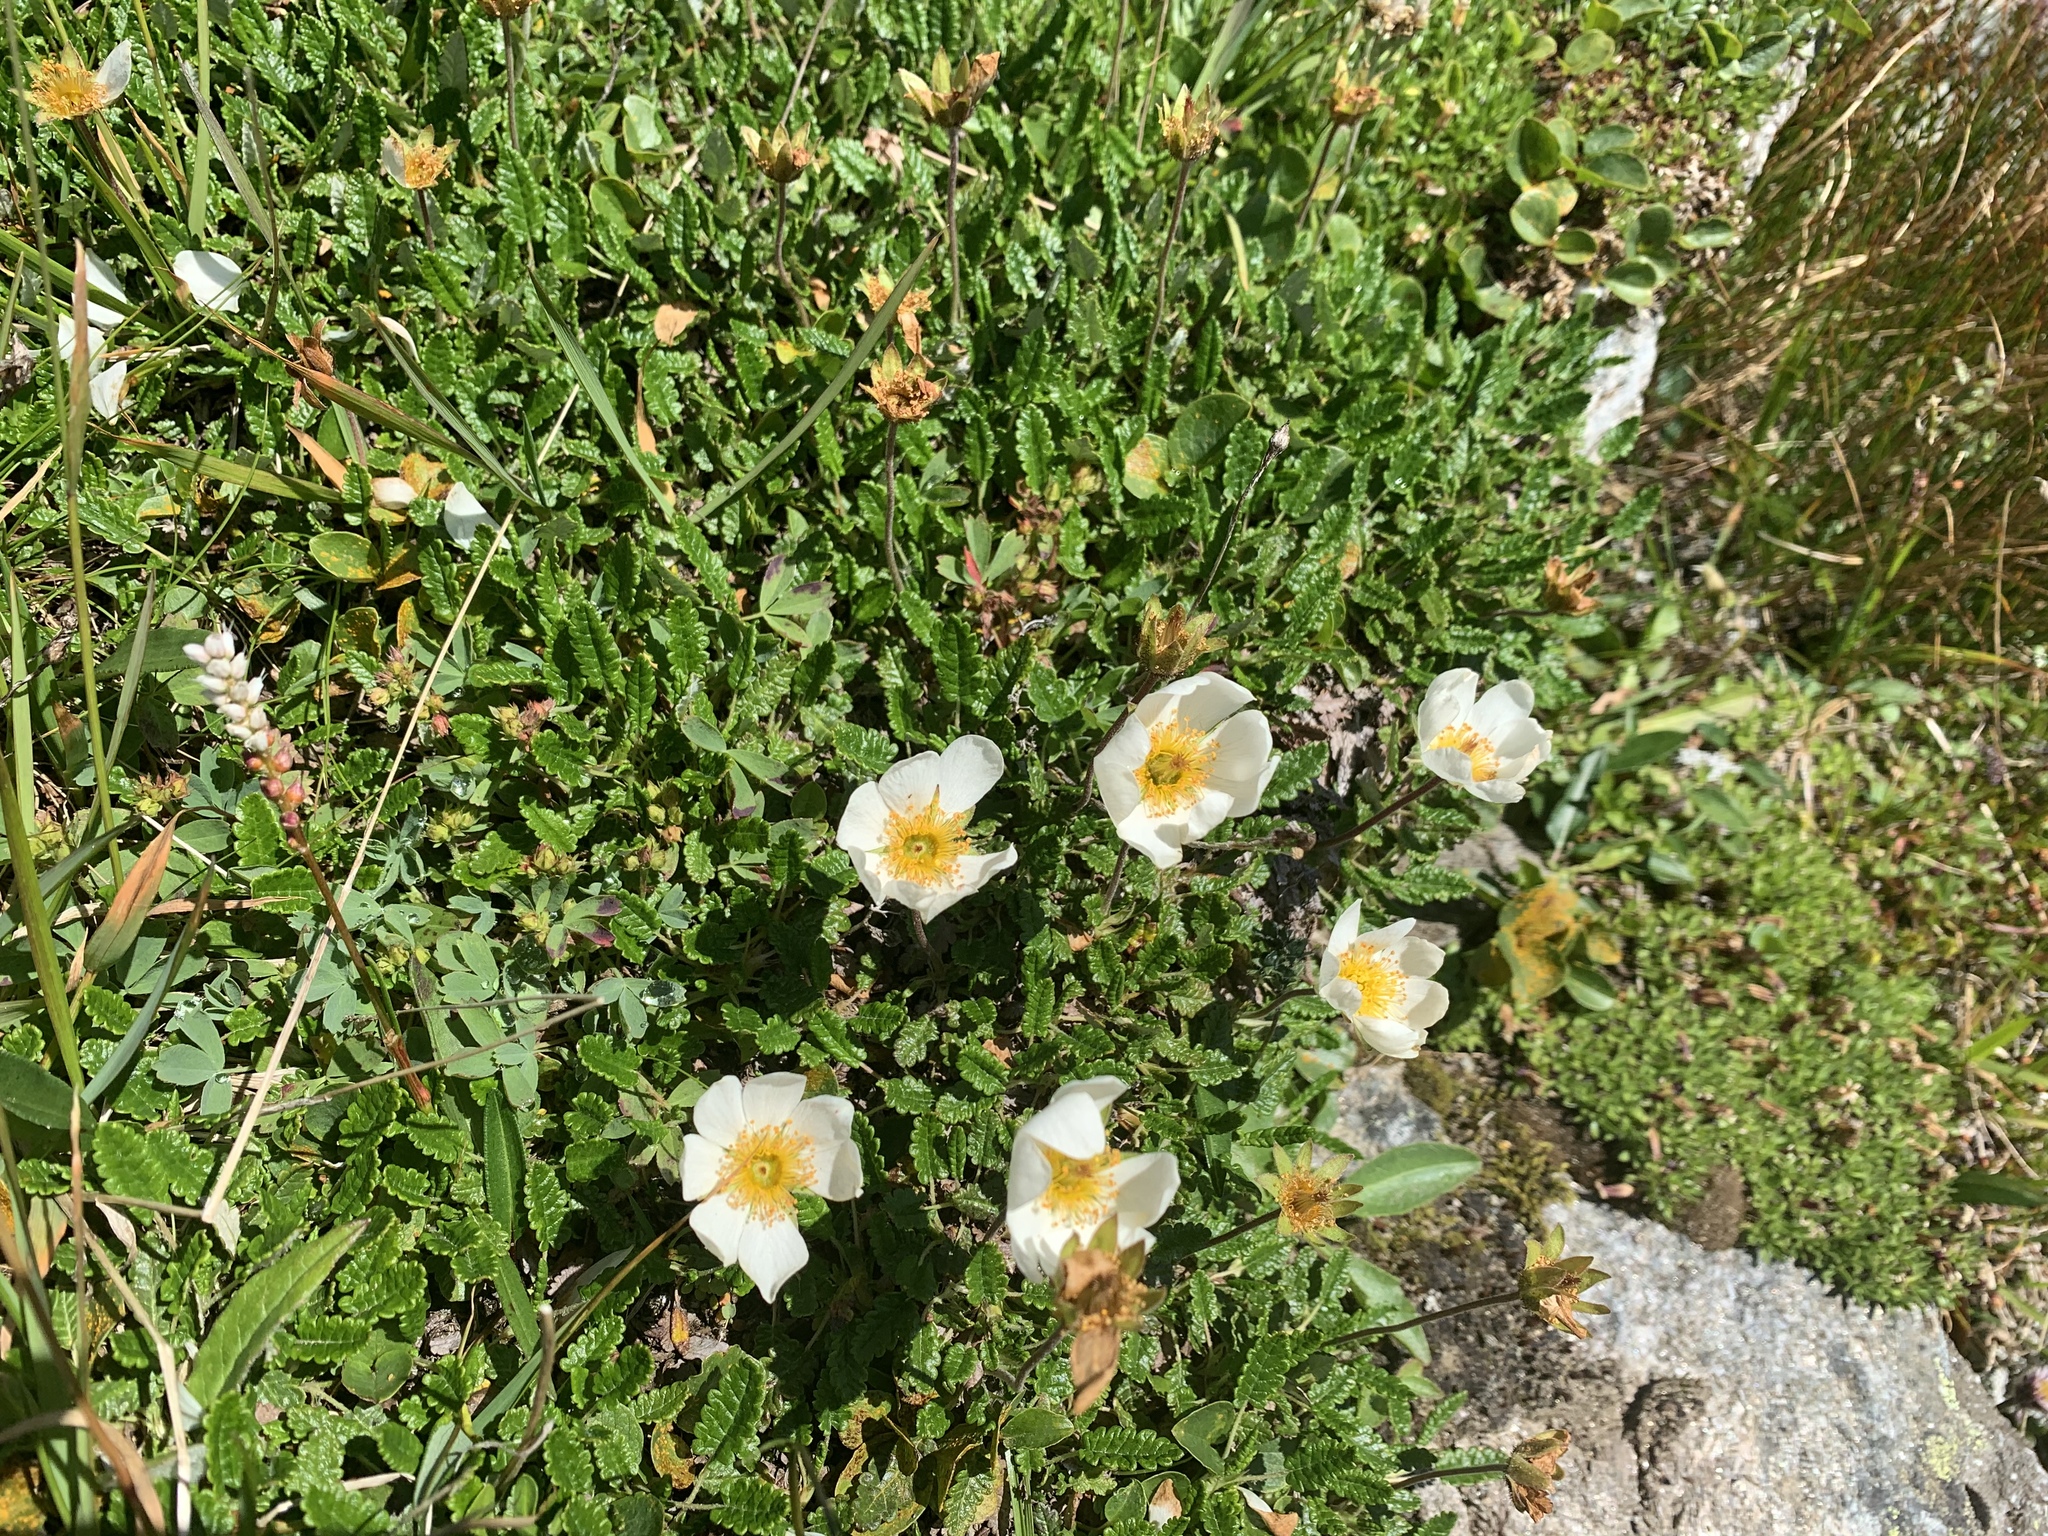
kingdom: Plantae
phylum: Tracheophyta
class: Magnoliopsida
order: Rosales
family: Rosaceae
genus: Dryas
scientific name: Dryas octopetala
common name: Eight-petal mountain-avens
